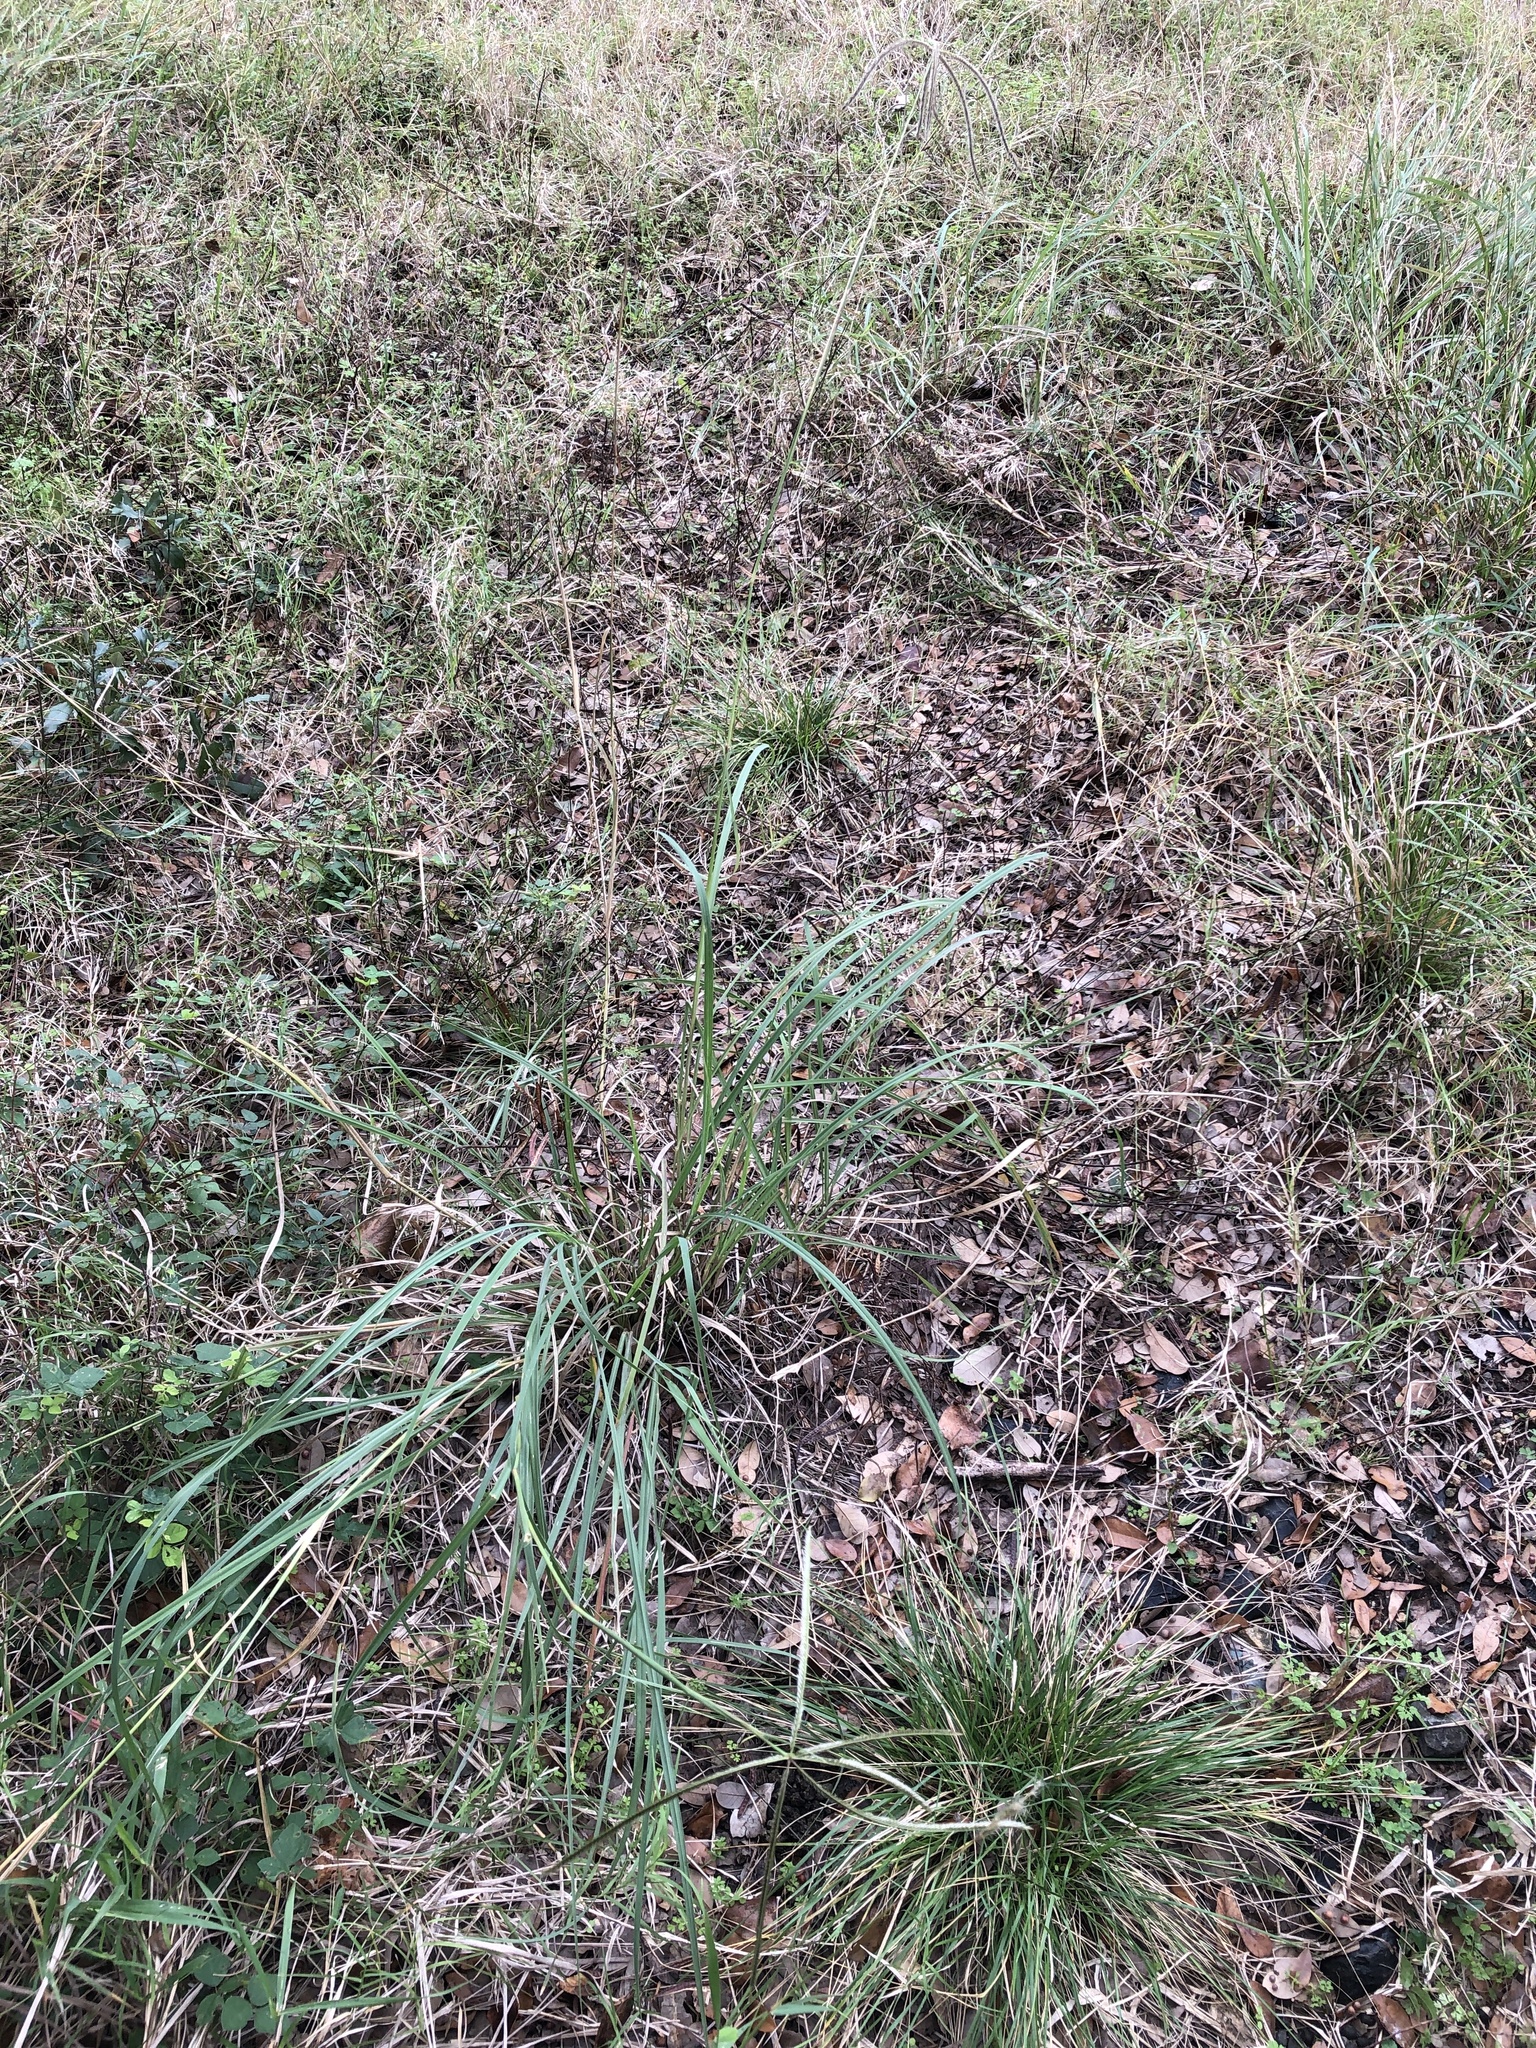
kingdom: Plantae
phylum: Tracheophyta
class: Liliopsida
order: Poales
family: Poaceae
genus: Stapfochloa
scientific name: Stapfochloa canterae
